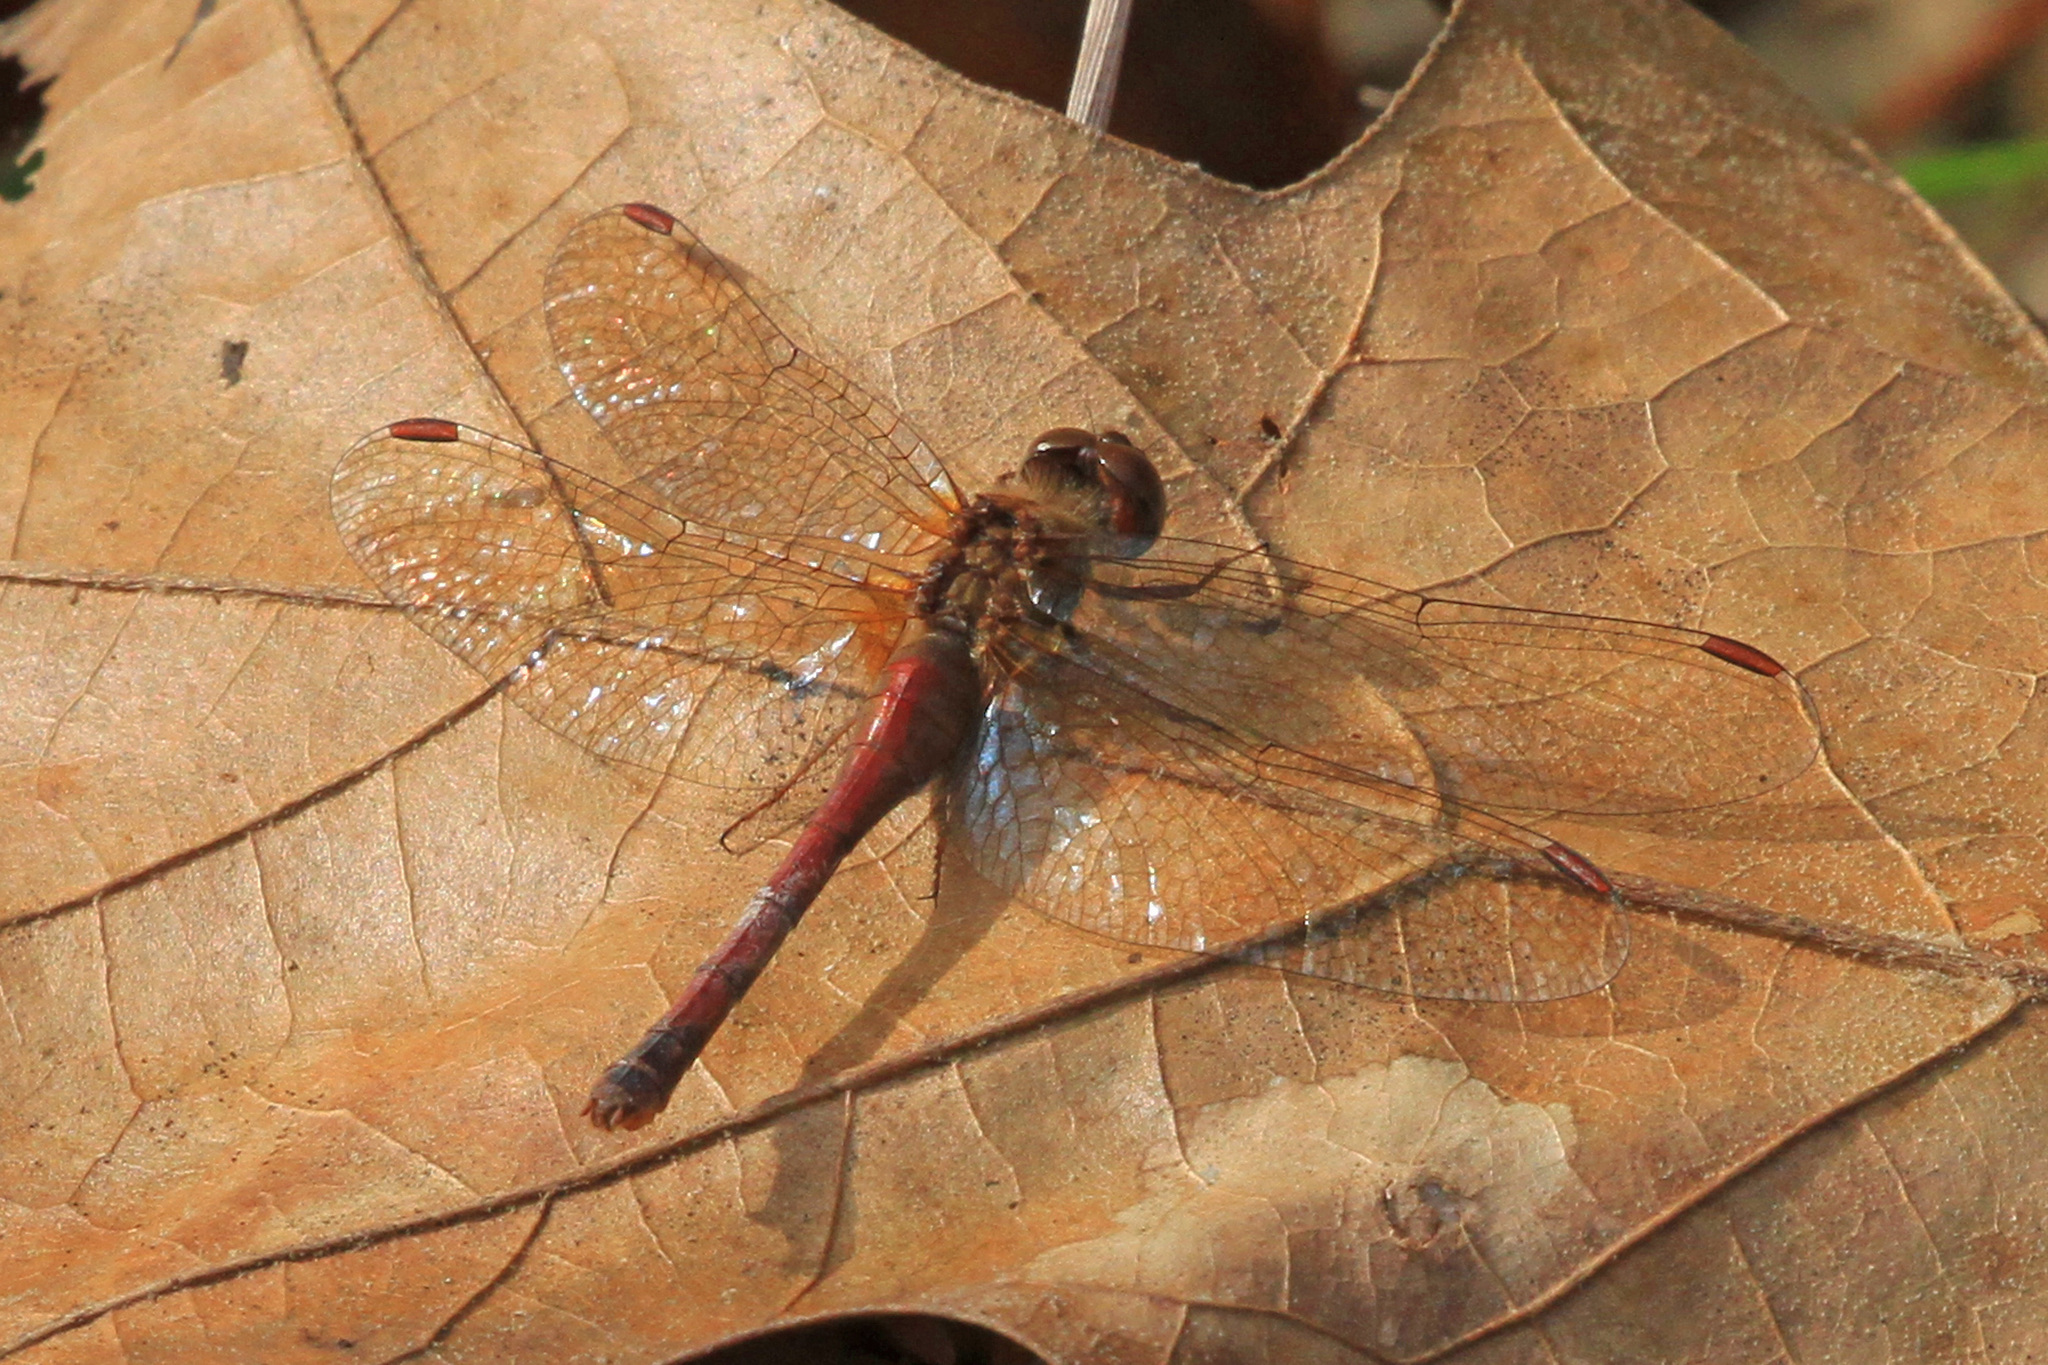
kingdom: Animalia
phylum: Arthropoda
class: Insecta
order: Odonata
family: Libellulidae
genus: Sympetrum
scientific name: Sympetrum vicinum
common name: Autumn meadowhawk
